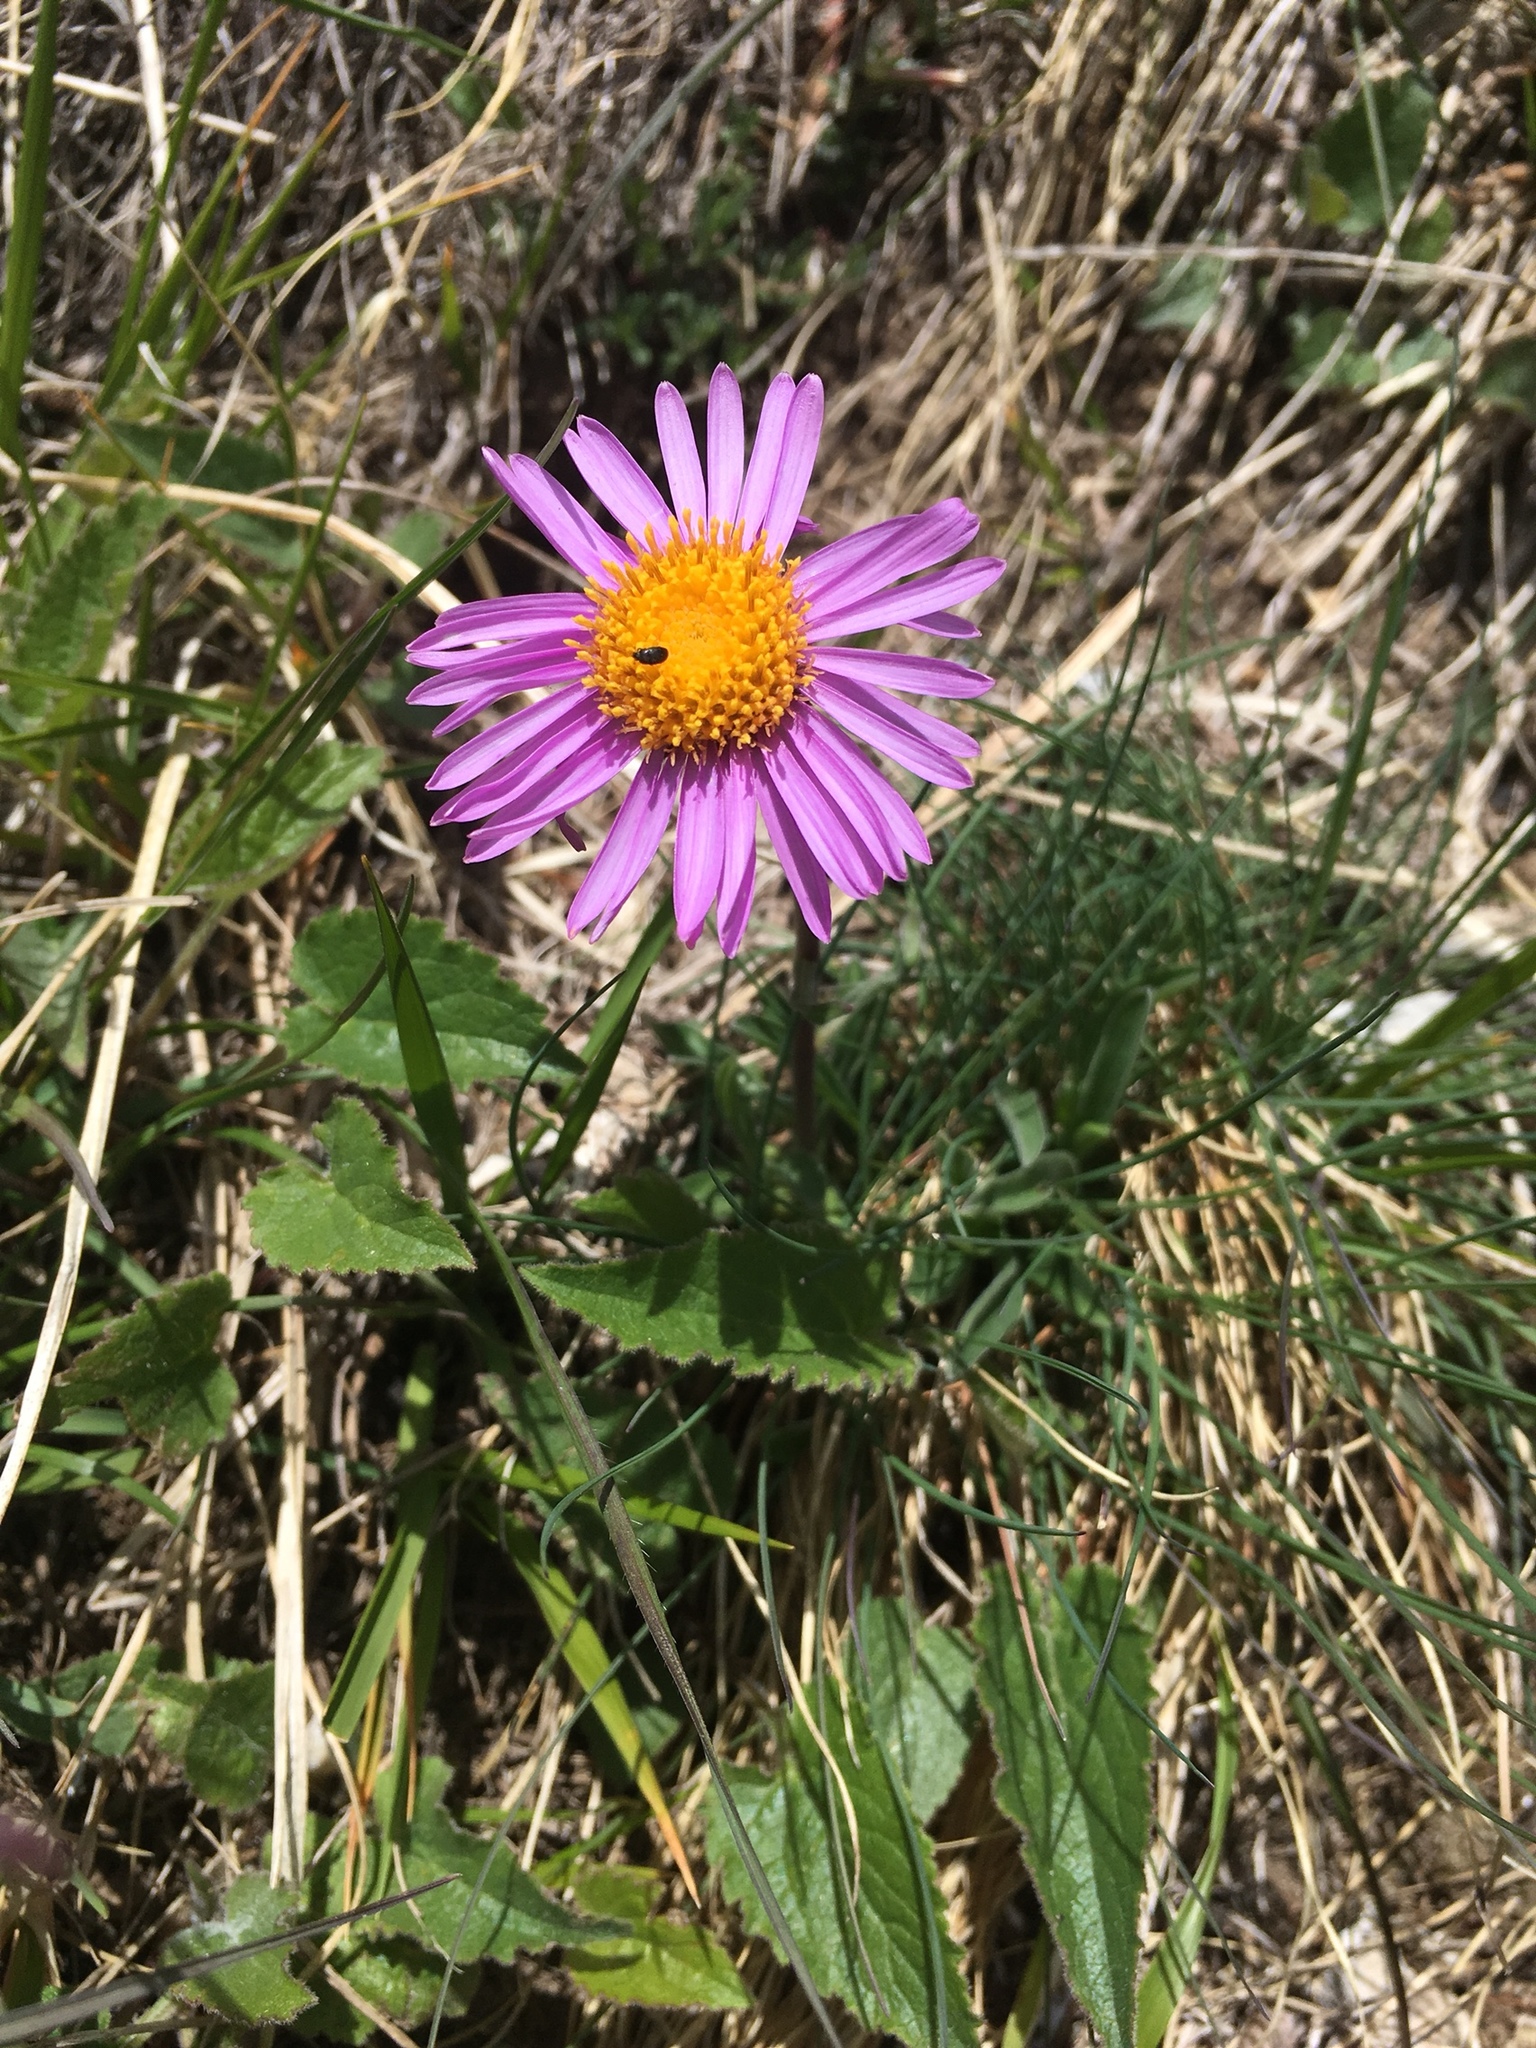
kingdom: Plantae
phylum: Tracheophyta
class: Magnoliopsida
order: Asterales
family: Asteraceae
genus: Aster
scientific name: Aster alpinus
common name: Alpine aster
